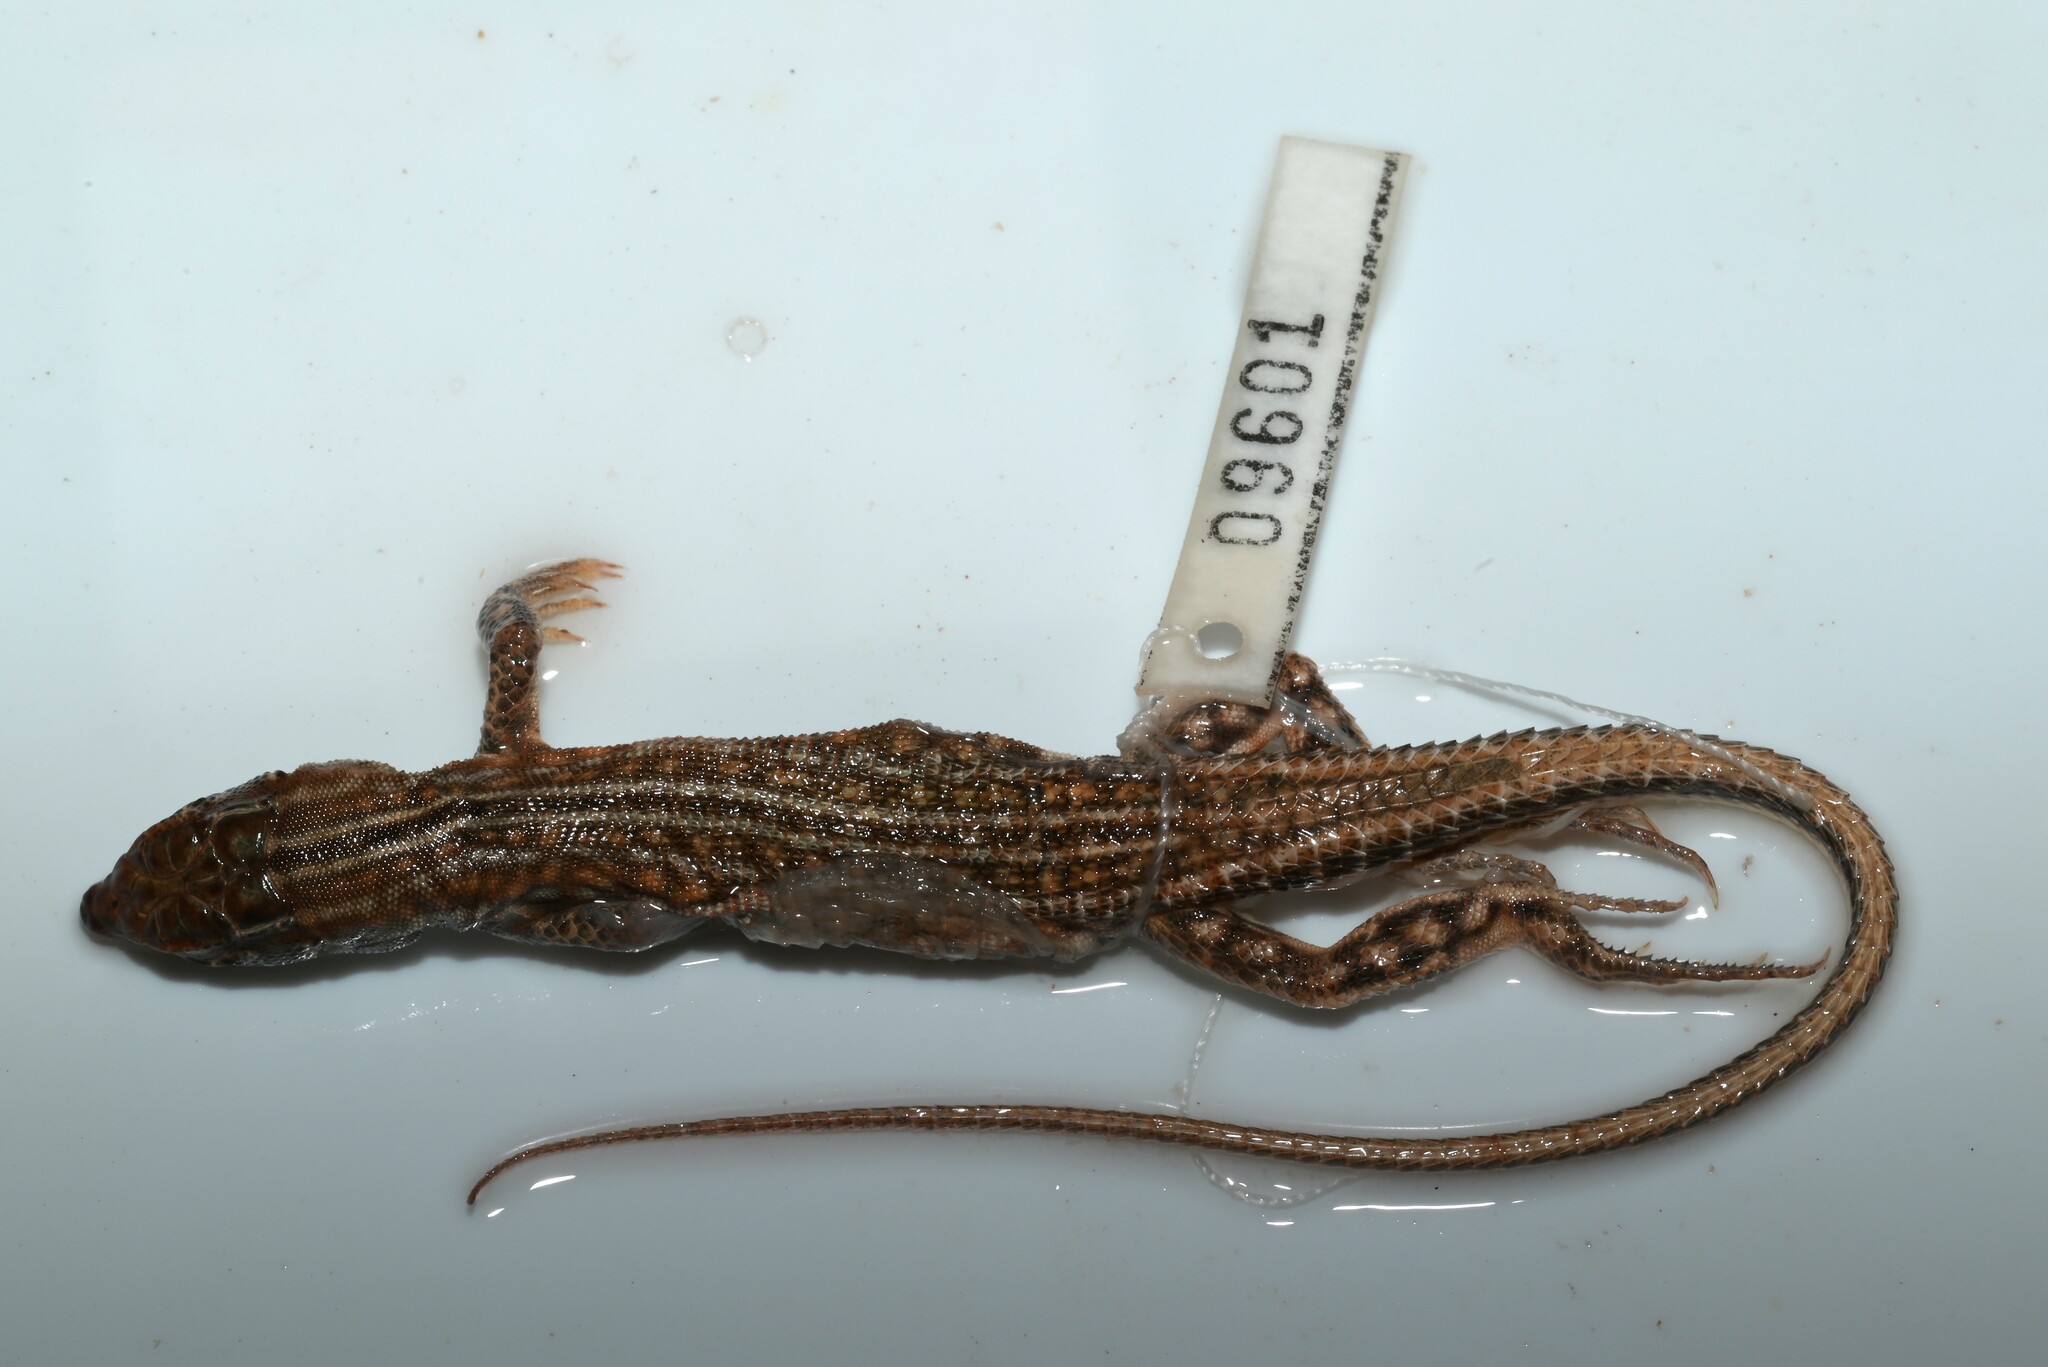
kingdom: Animalia
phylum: Chordata
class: Squamata
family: Lacertidae
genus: Acanthodactylus
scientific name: Acanthodactylus opheodurus
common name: Arnold's fringe-fingered lizard
